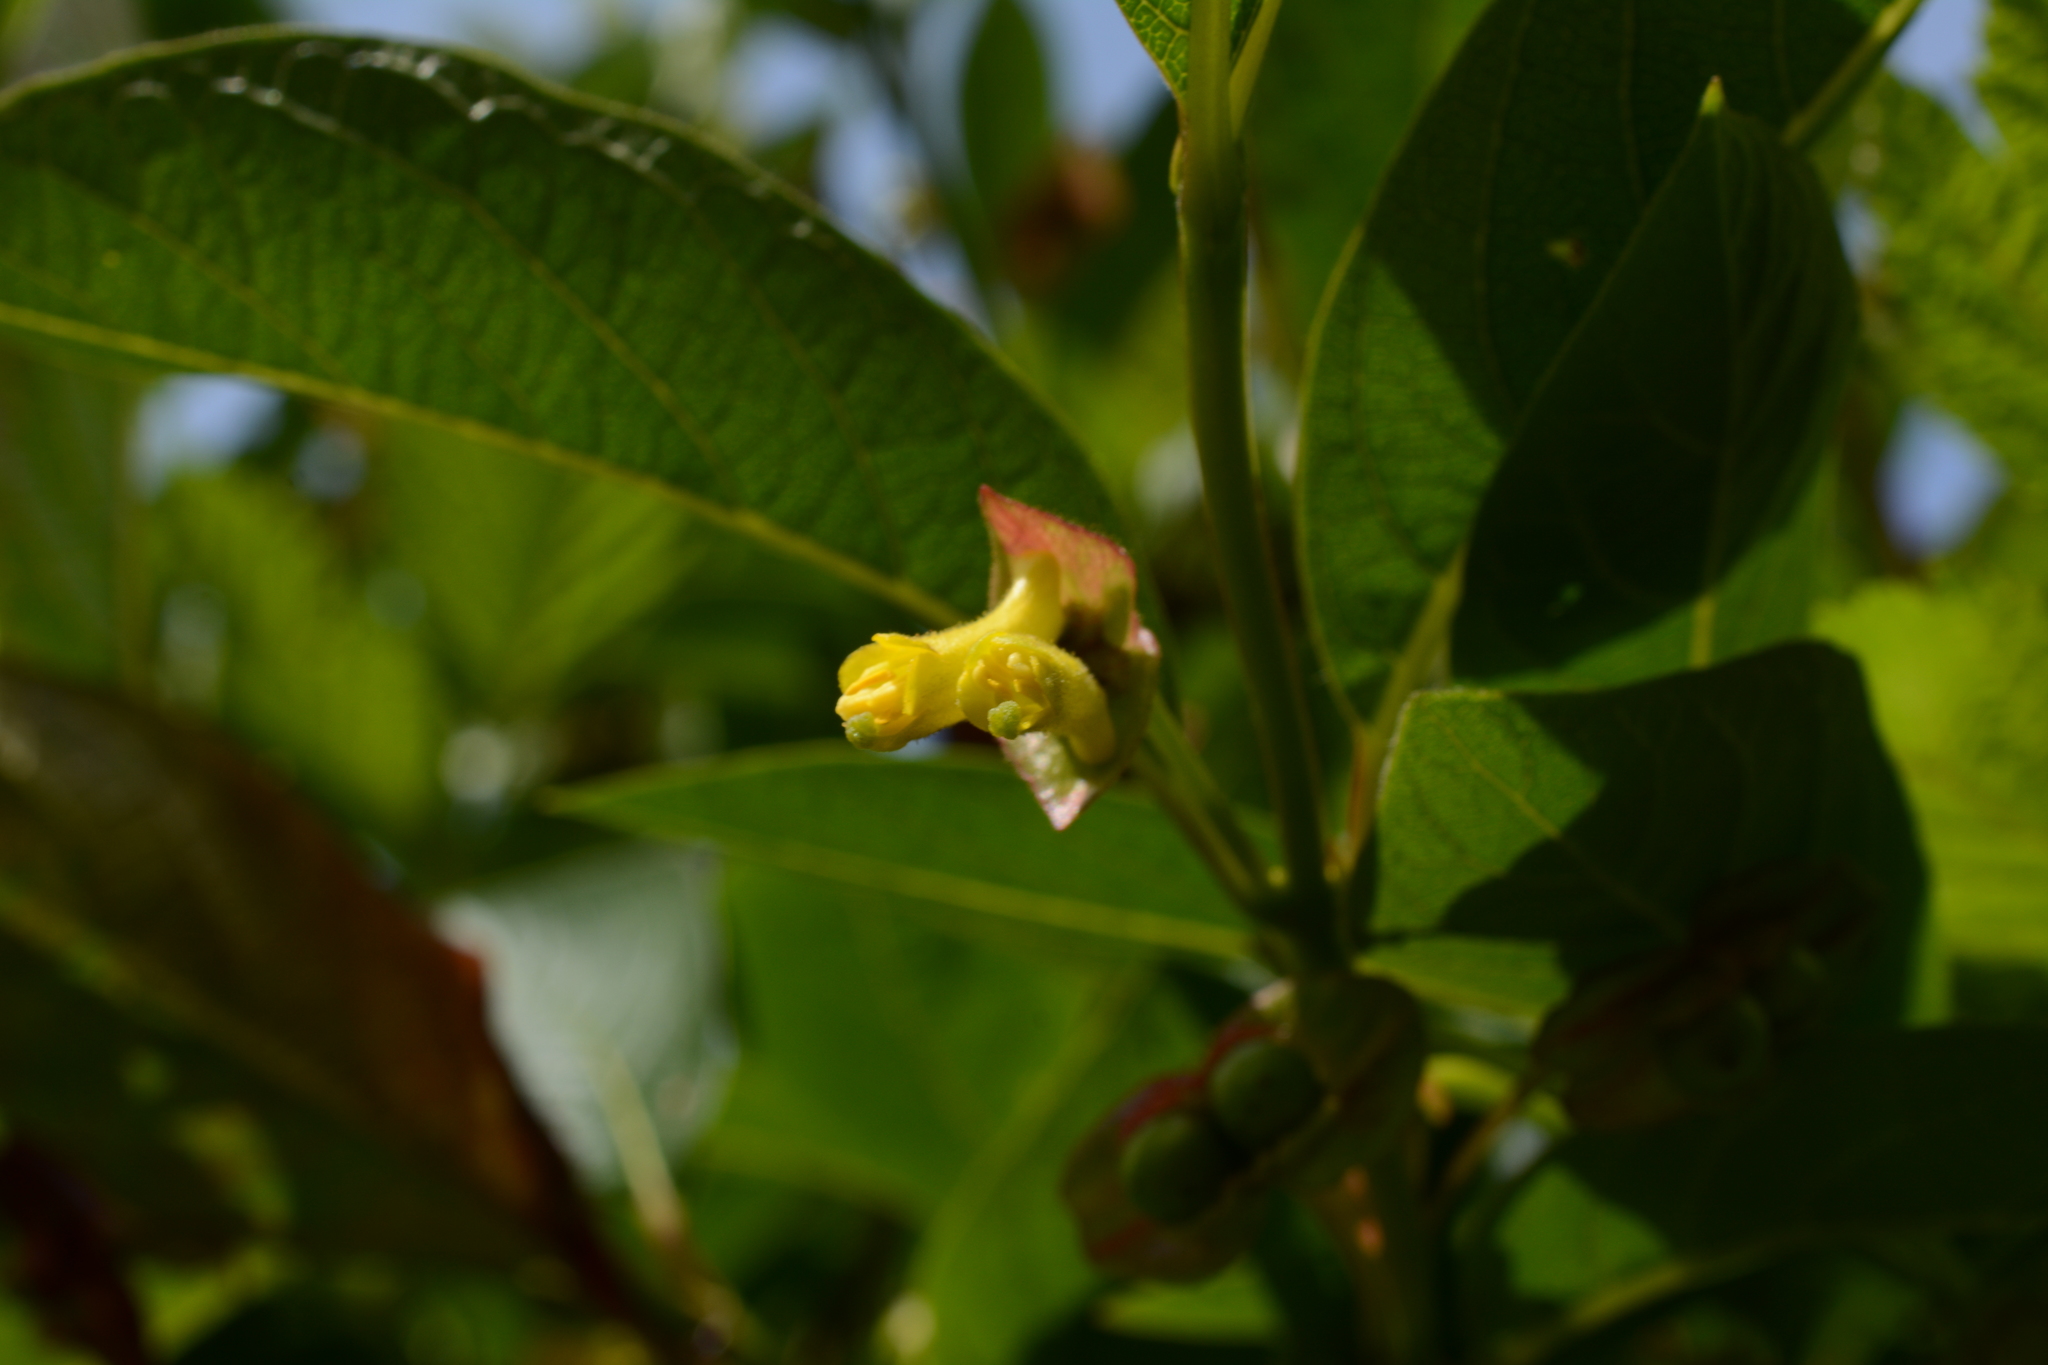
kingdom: Plantae
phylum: Tracheophyta
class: Magnoliopsida
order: Dipsacales
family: Caprifoliaceae
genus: Lonicera
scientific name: Lonicera involucrata
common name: Californian honeysuckle
